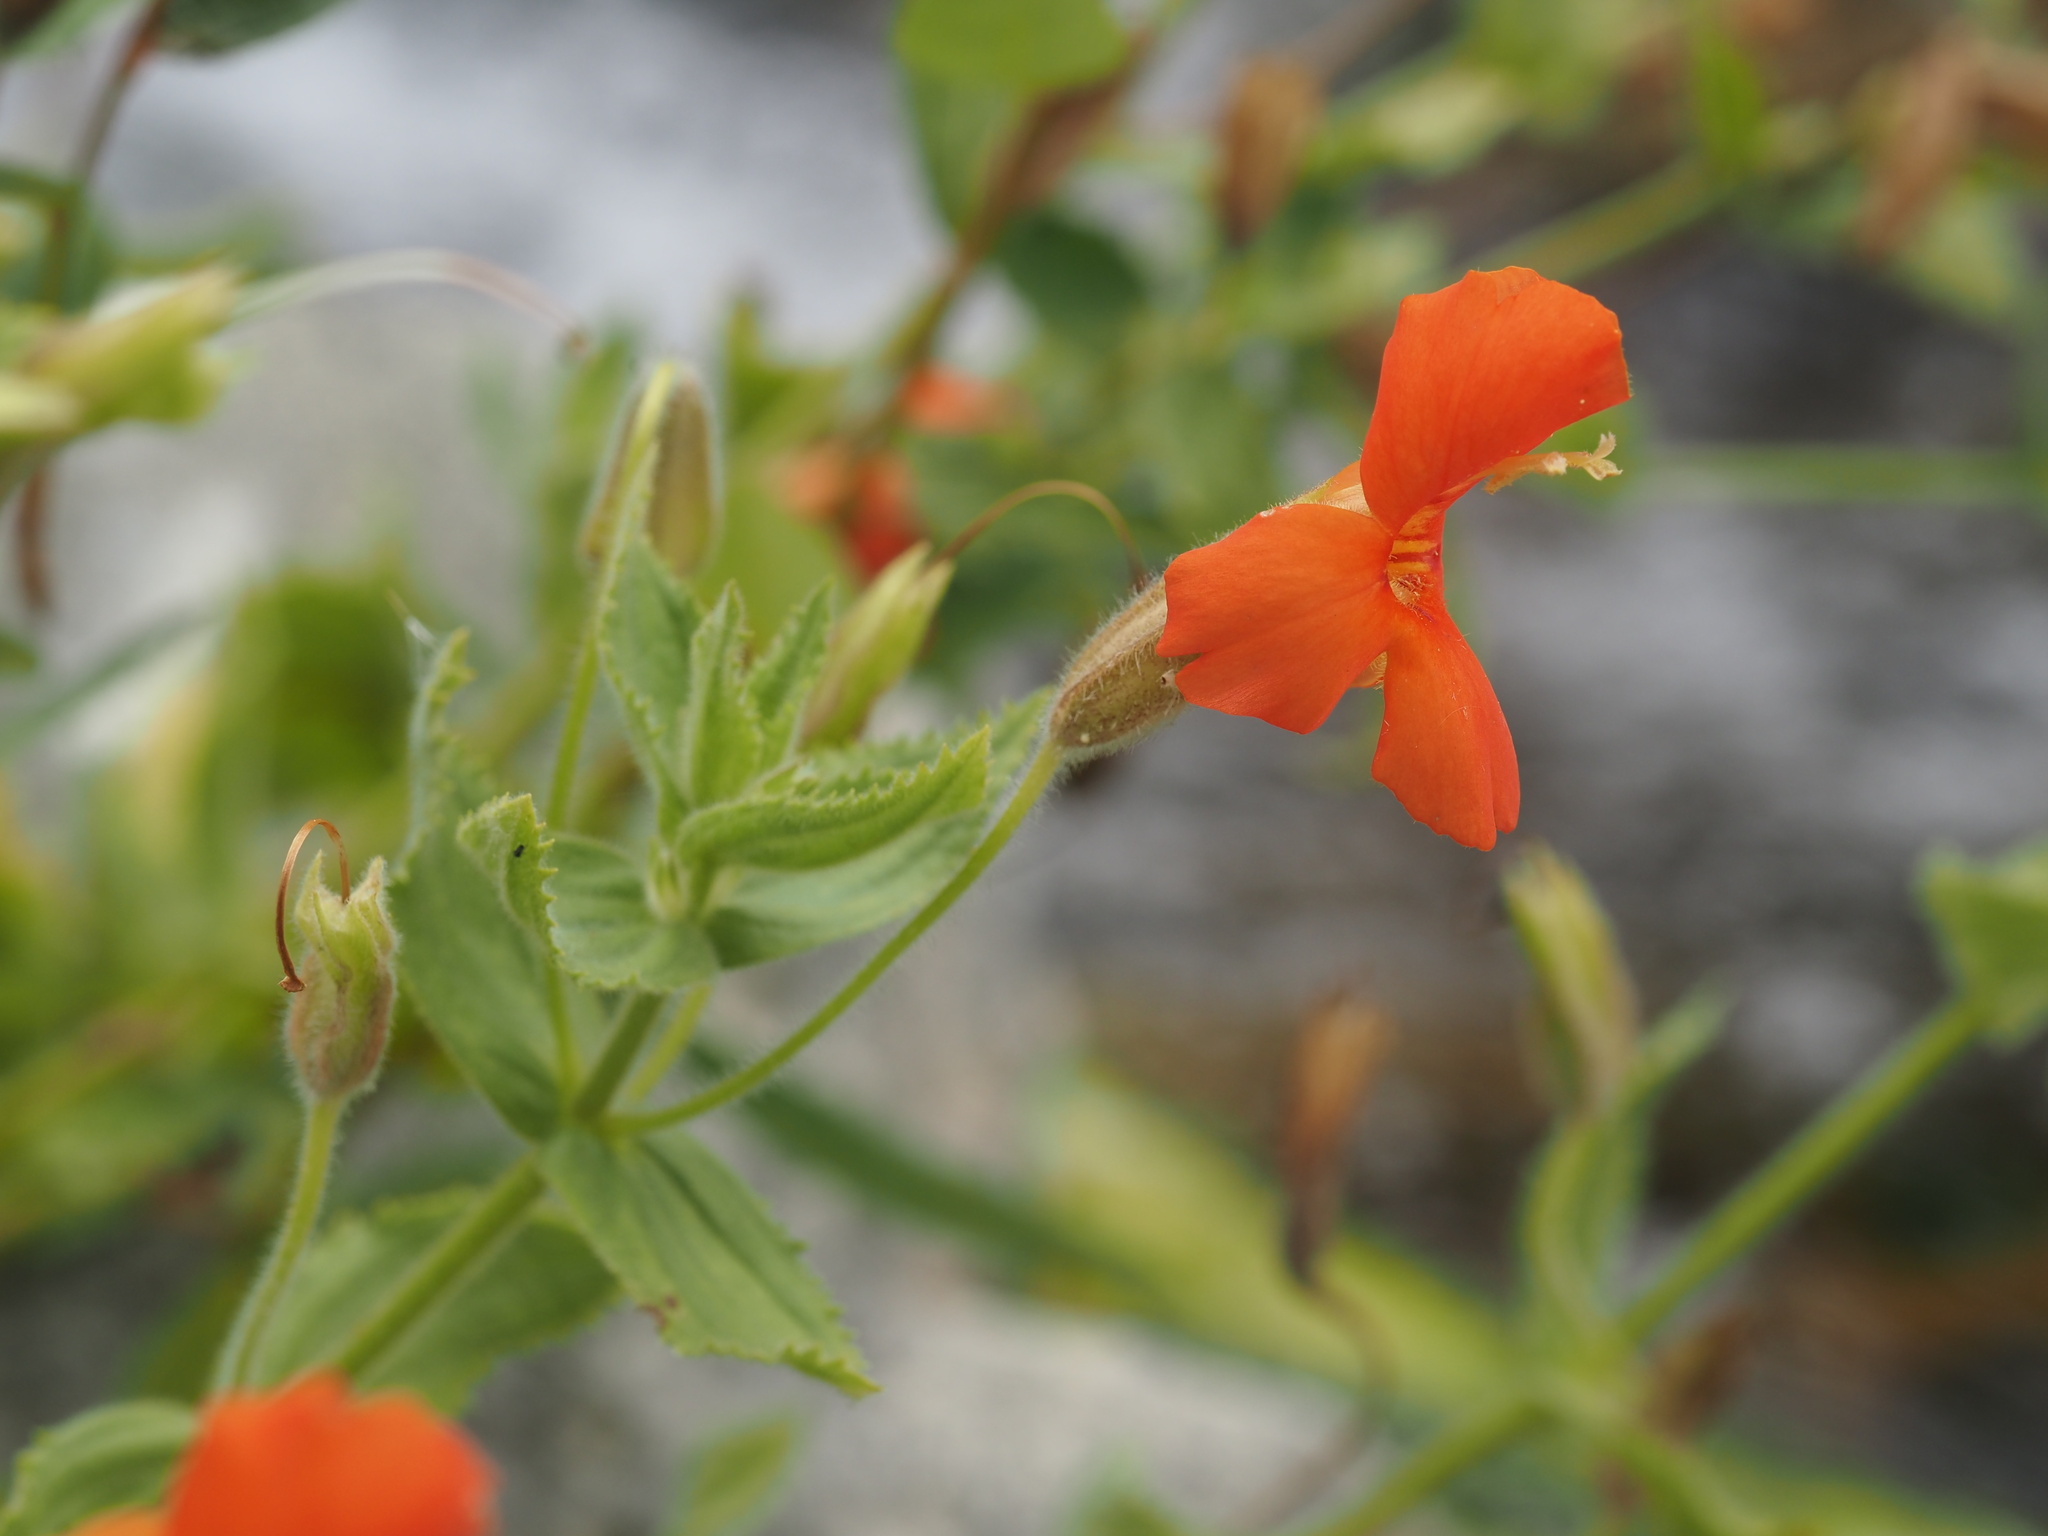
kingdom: Plantae
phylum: Tracheophyta
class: Magnoliopsida
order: Lamiales
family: Phrymaceae
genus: Erythranthe
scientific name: Erythranthe cardinalis
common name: Scarlet monkey-flower
